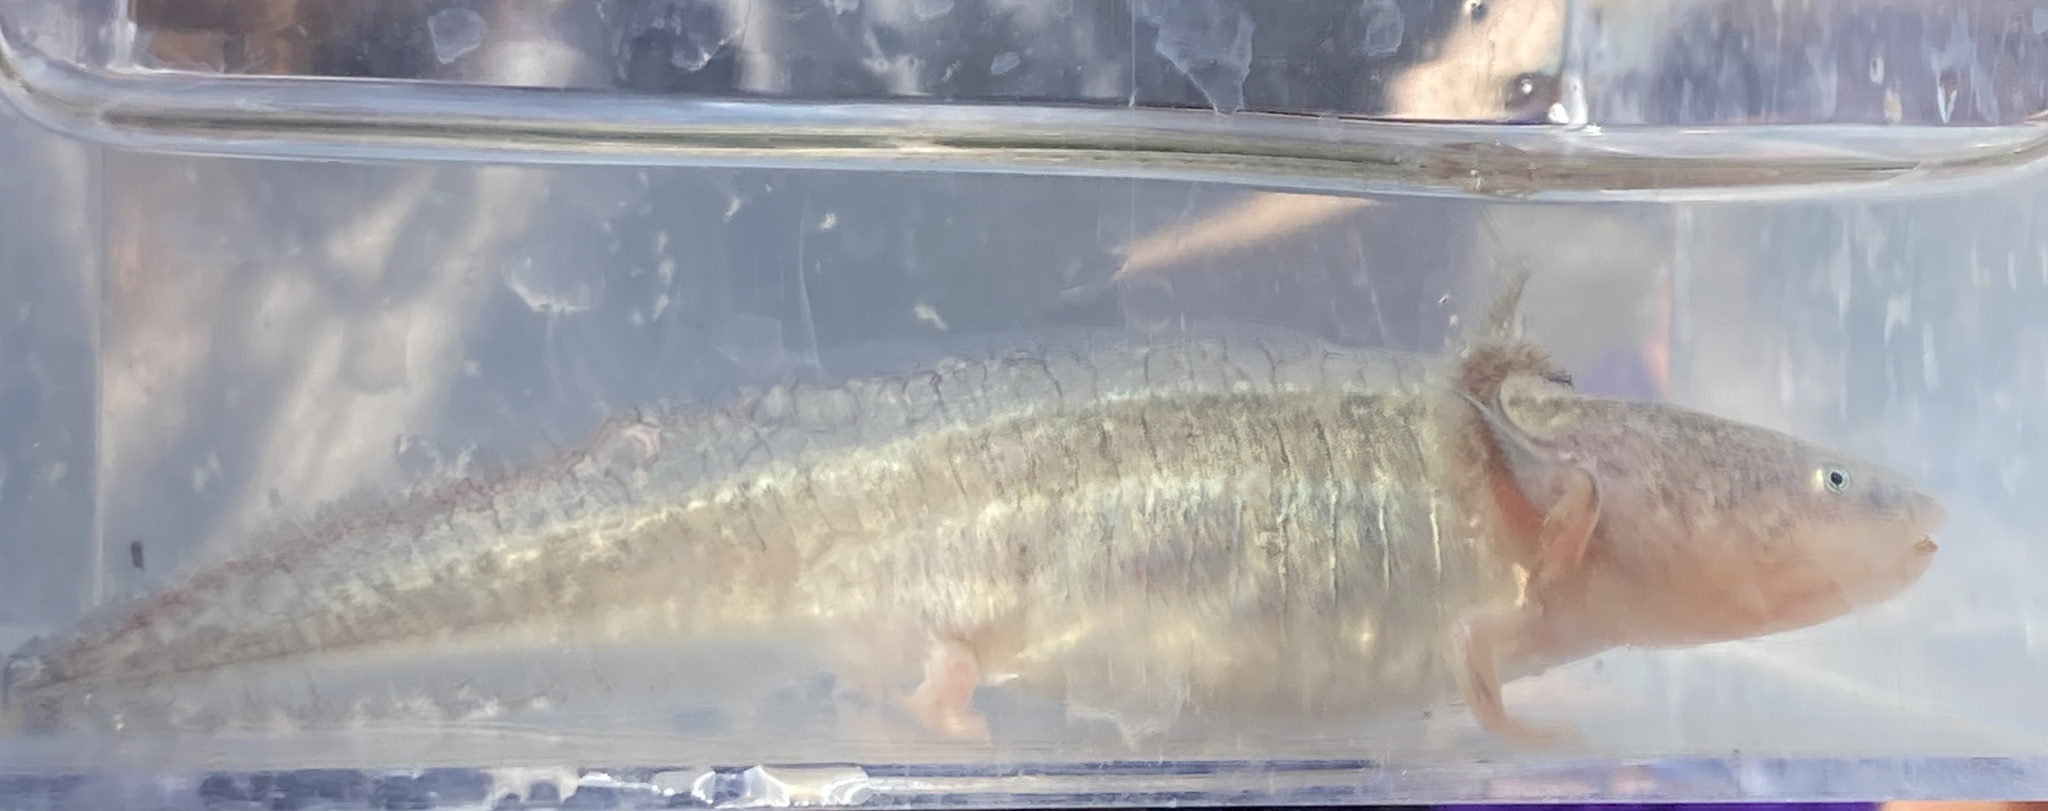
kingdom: Animalia
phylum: Chordata
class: Amphibia
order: Caudata
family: Ambystomatidae
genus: Ambystoma
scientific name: Ambystoma californiense
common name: California tiger salamander
